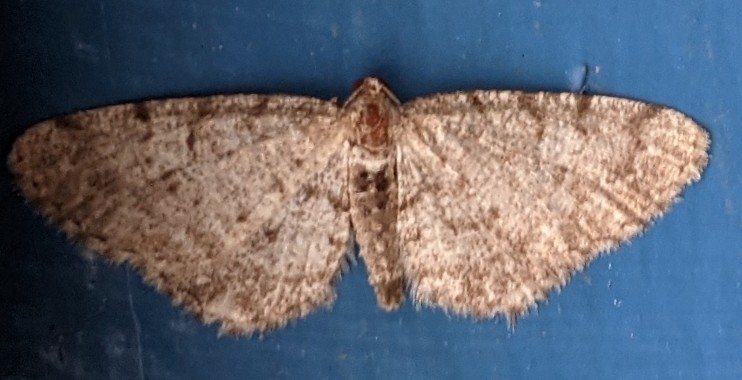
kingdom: Animalia
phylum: Arthropoda
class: Insecta
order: Lepidoptera
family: Geometridae
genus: Aethalura
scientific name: Aethalura intertexta
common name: Four-barred gray
